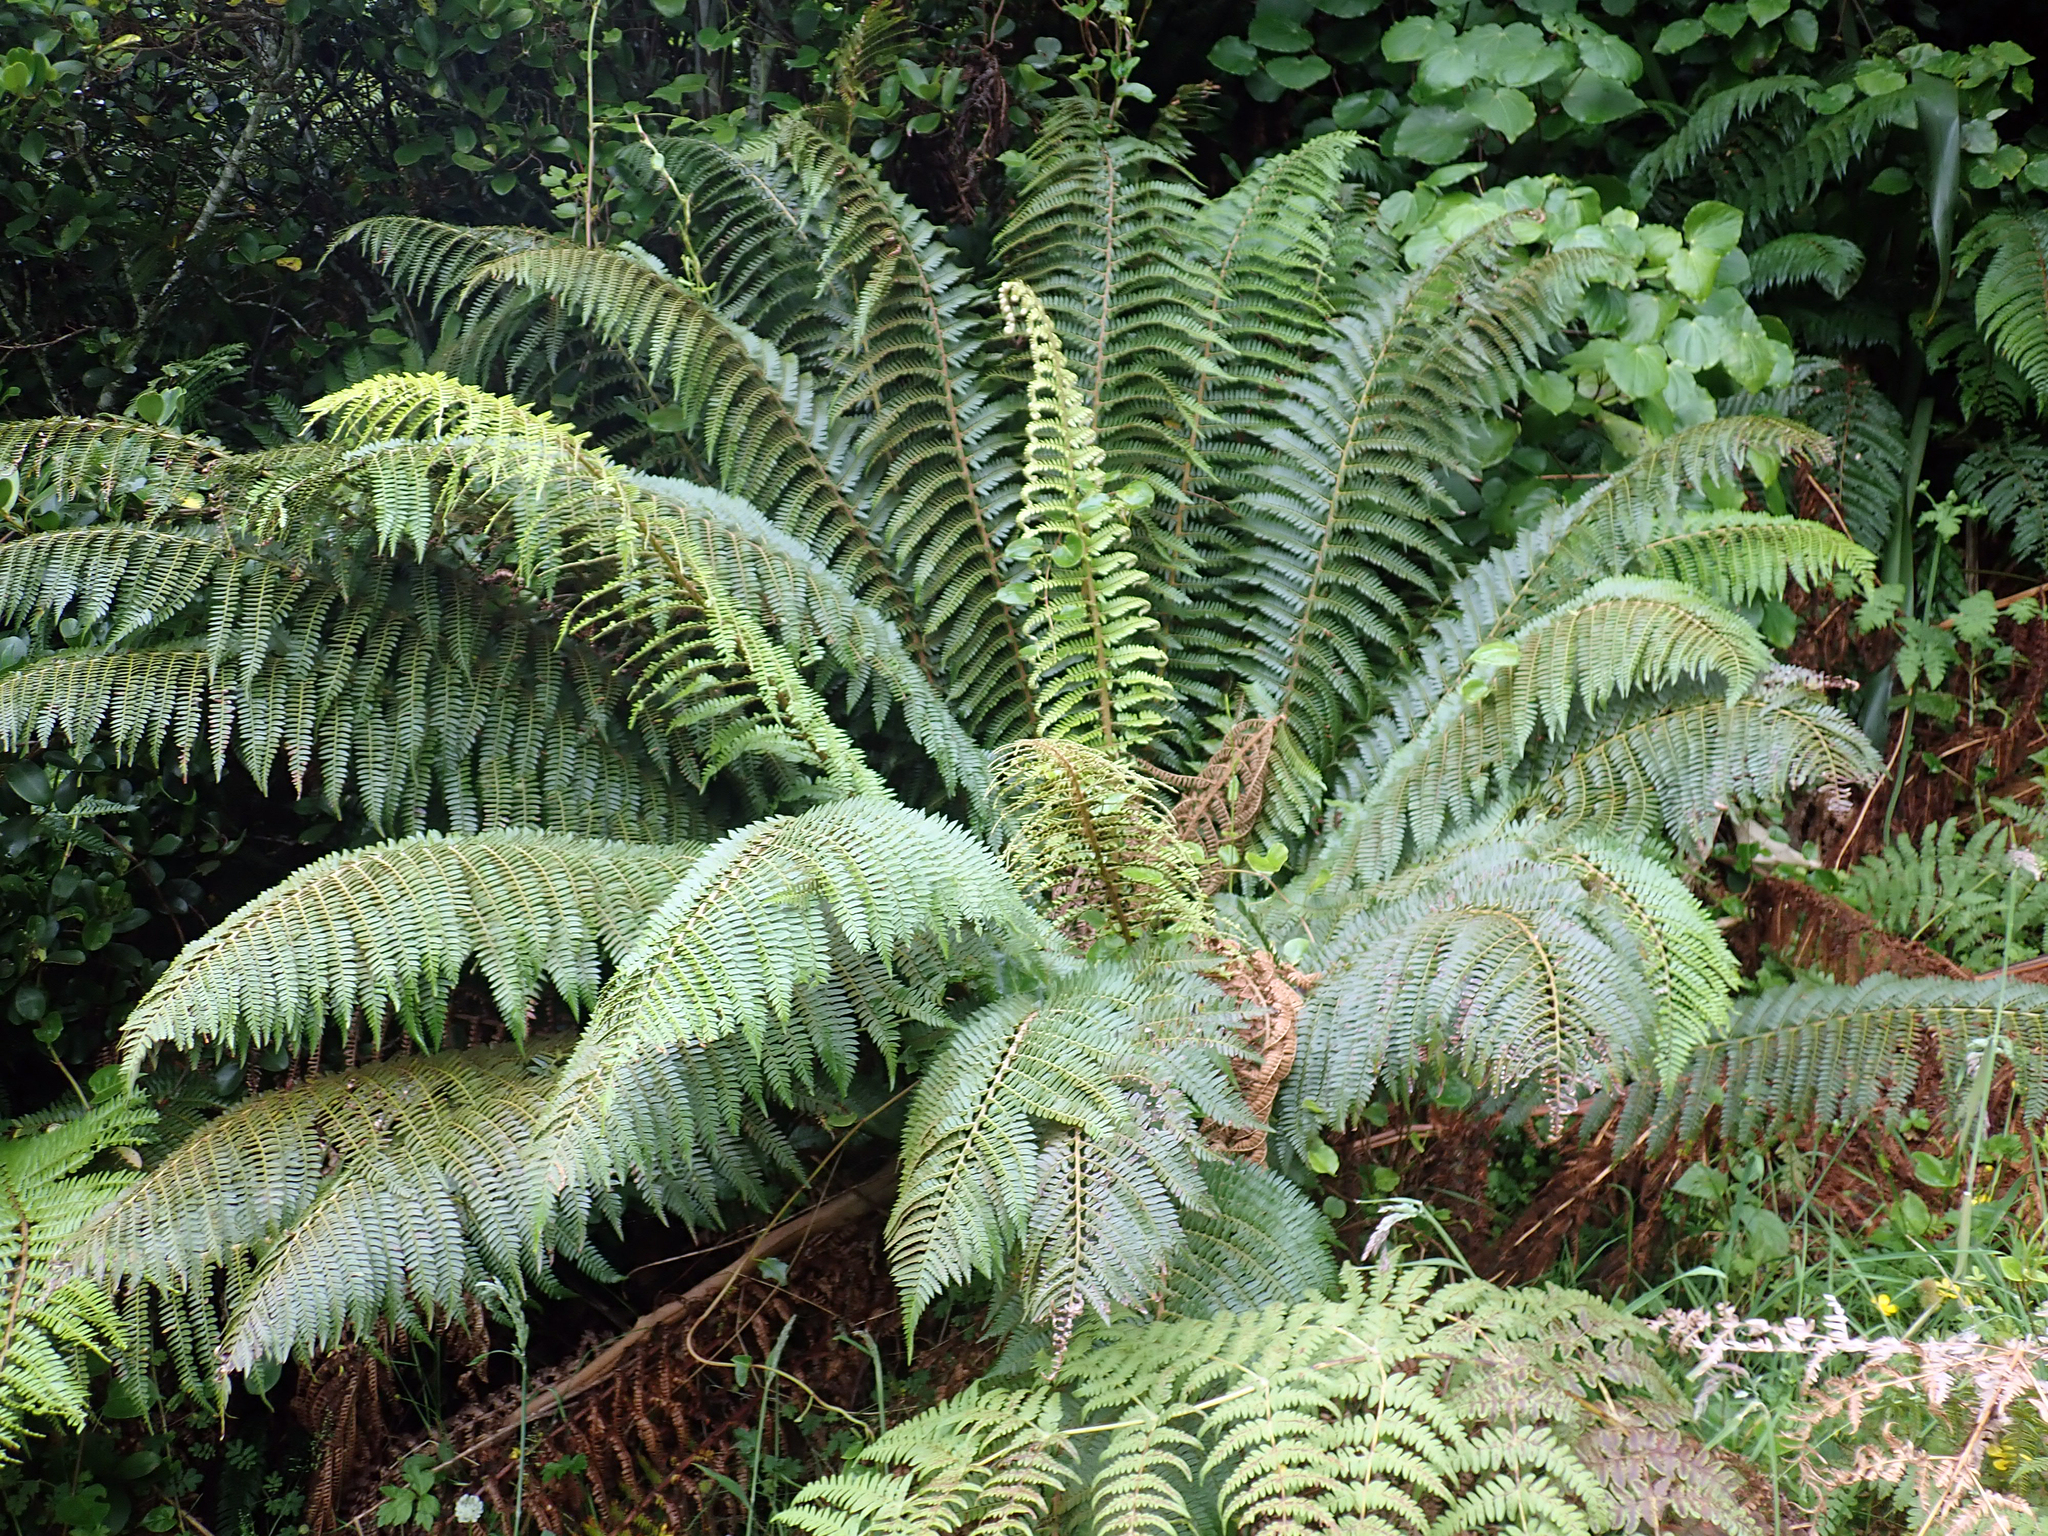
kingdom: Plantae
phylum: Tracheophyta
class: Polypodiopsida
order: Polypodiales
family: Dryopteridaceae
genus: Polystichum
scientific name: Polystichum vestitum
